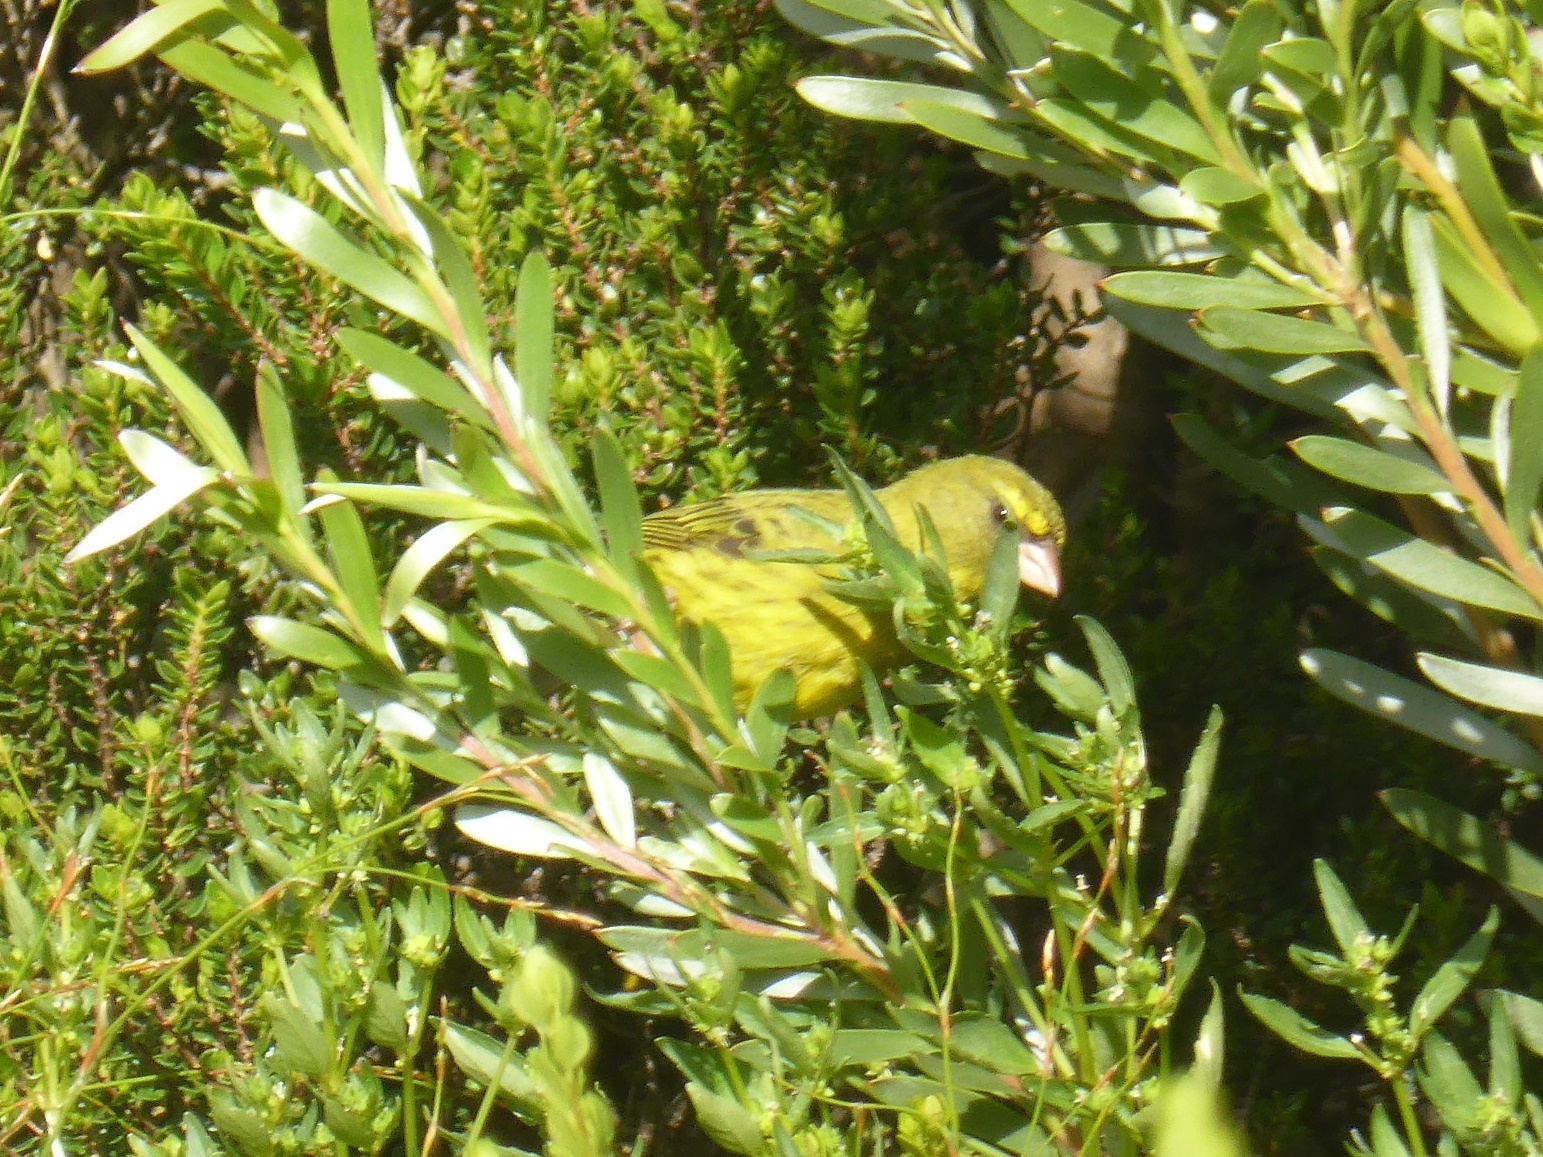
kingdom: Animalia
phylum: Chordata
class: Aves
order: Passeriformes
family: Fringillidae
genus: Crithagra
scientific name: Crithagra scotops
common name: Forest canary
